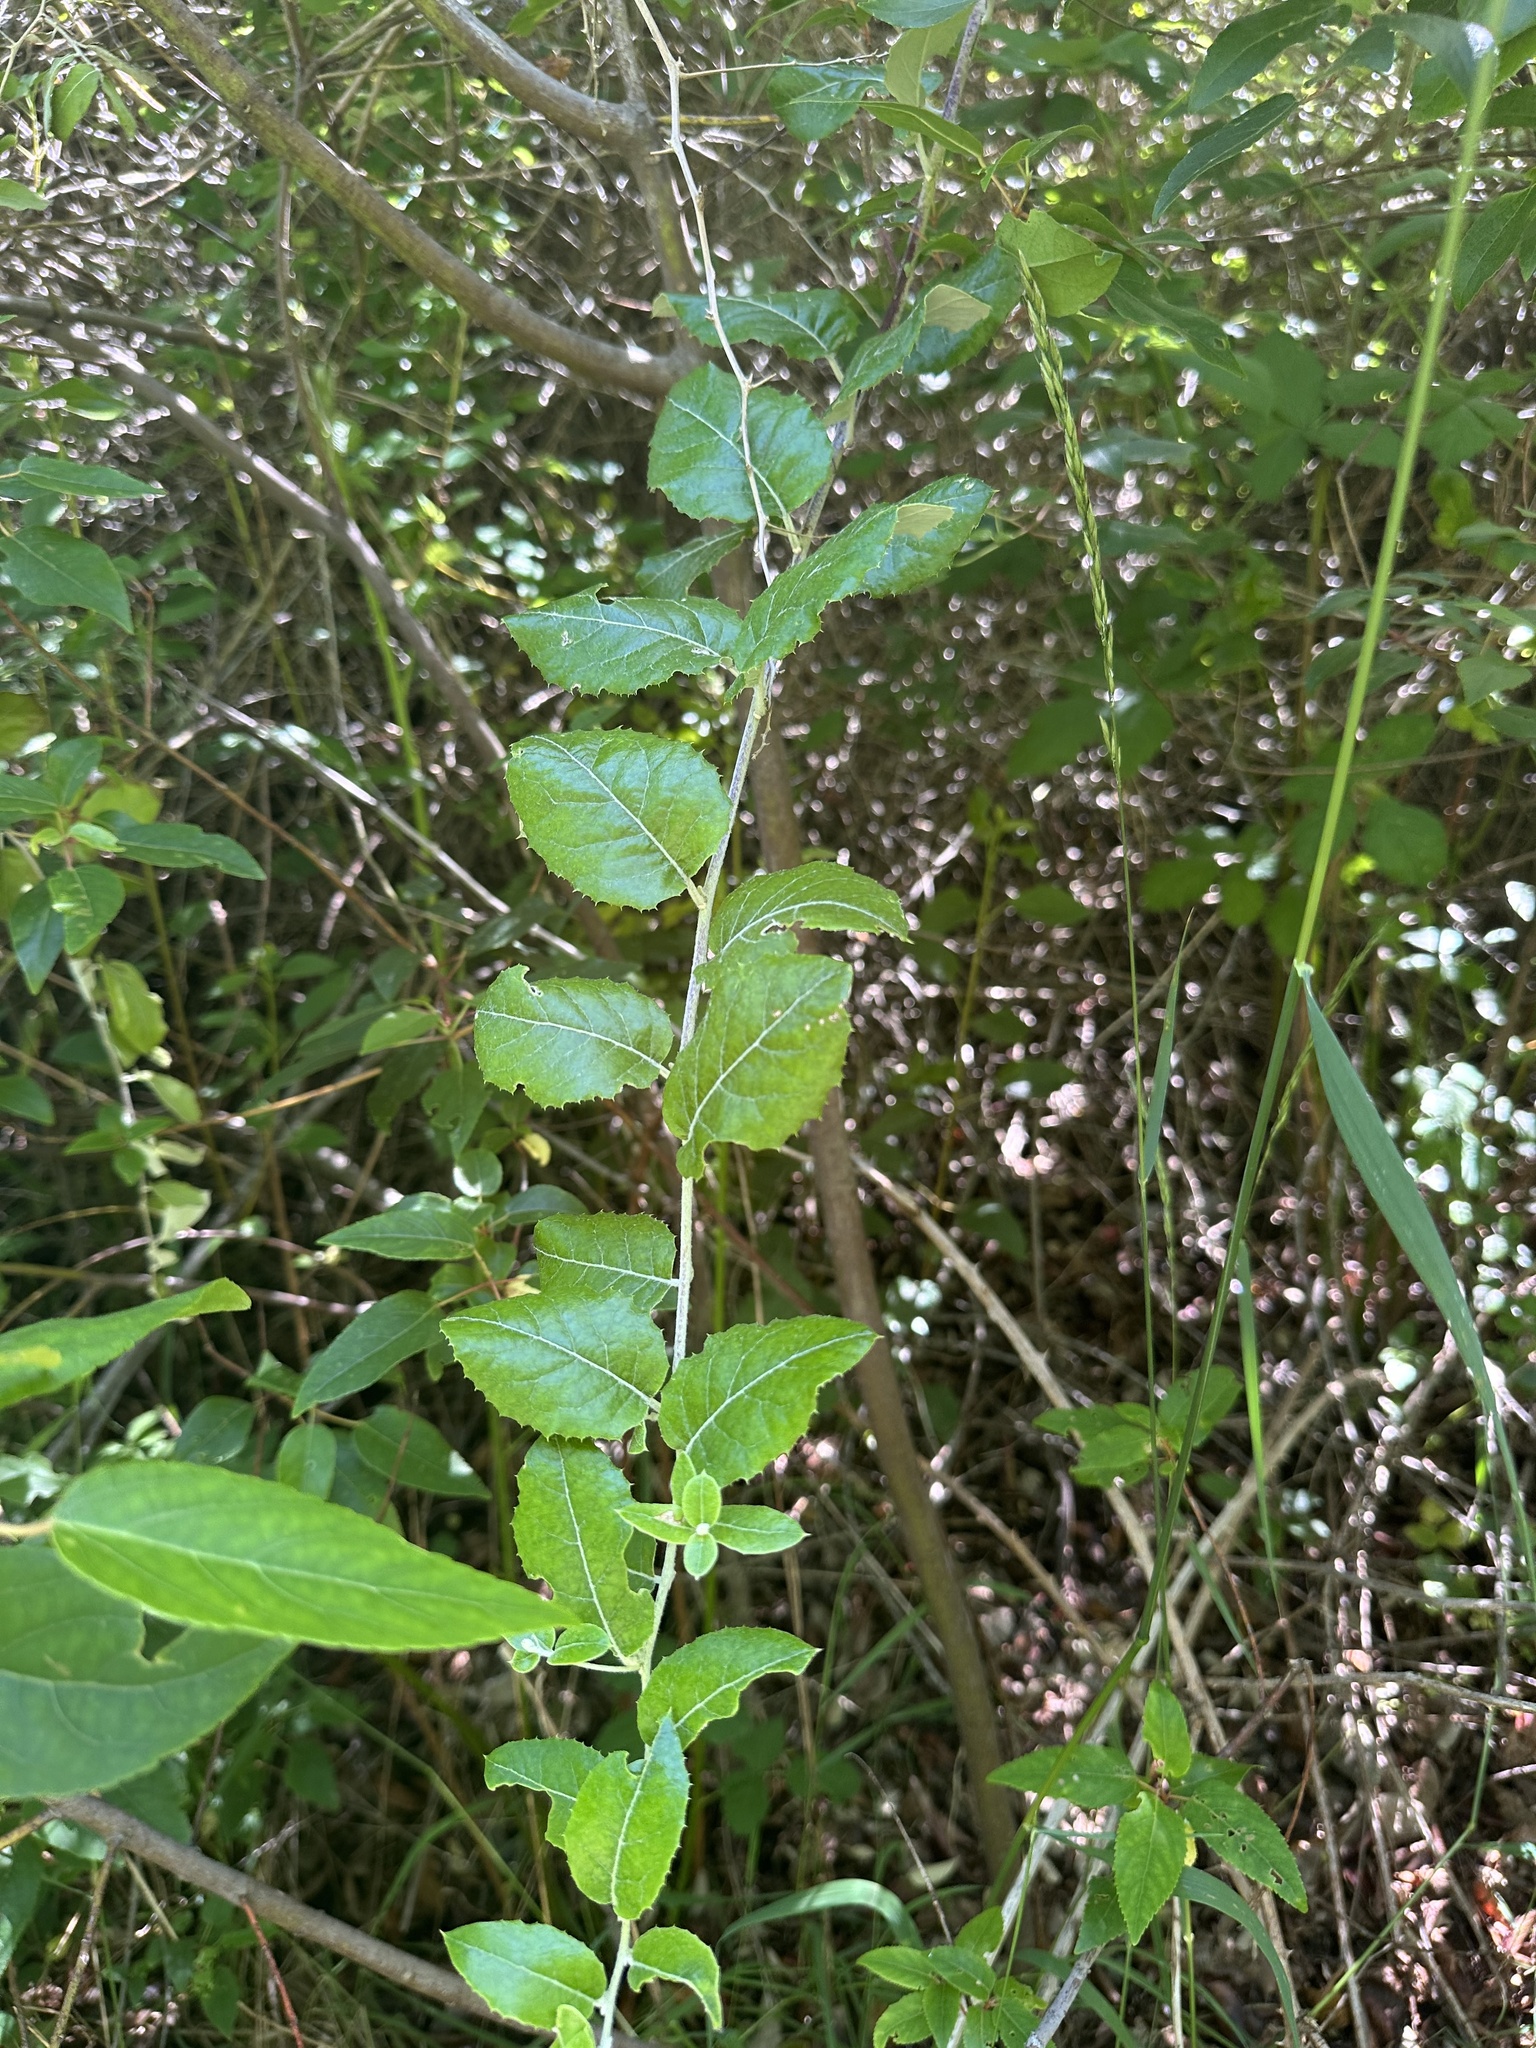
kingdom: Plantae
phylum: Tracheophyta
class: Magnoliopsida
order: Asterales
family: Asteraceae
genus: Proustia
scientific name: Proustia pyrifolia
